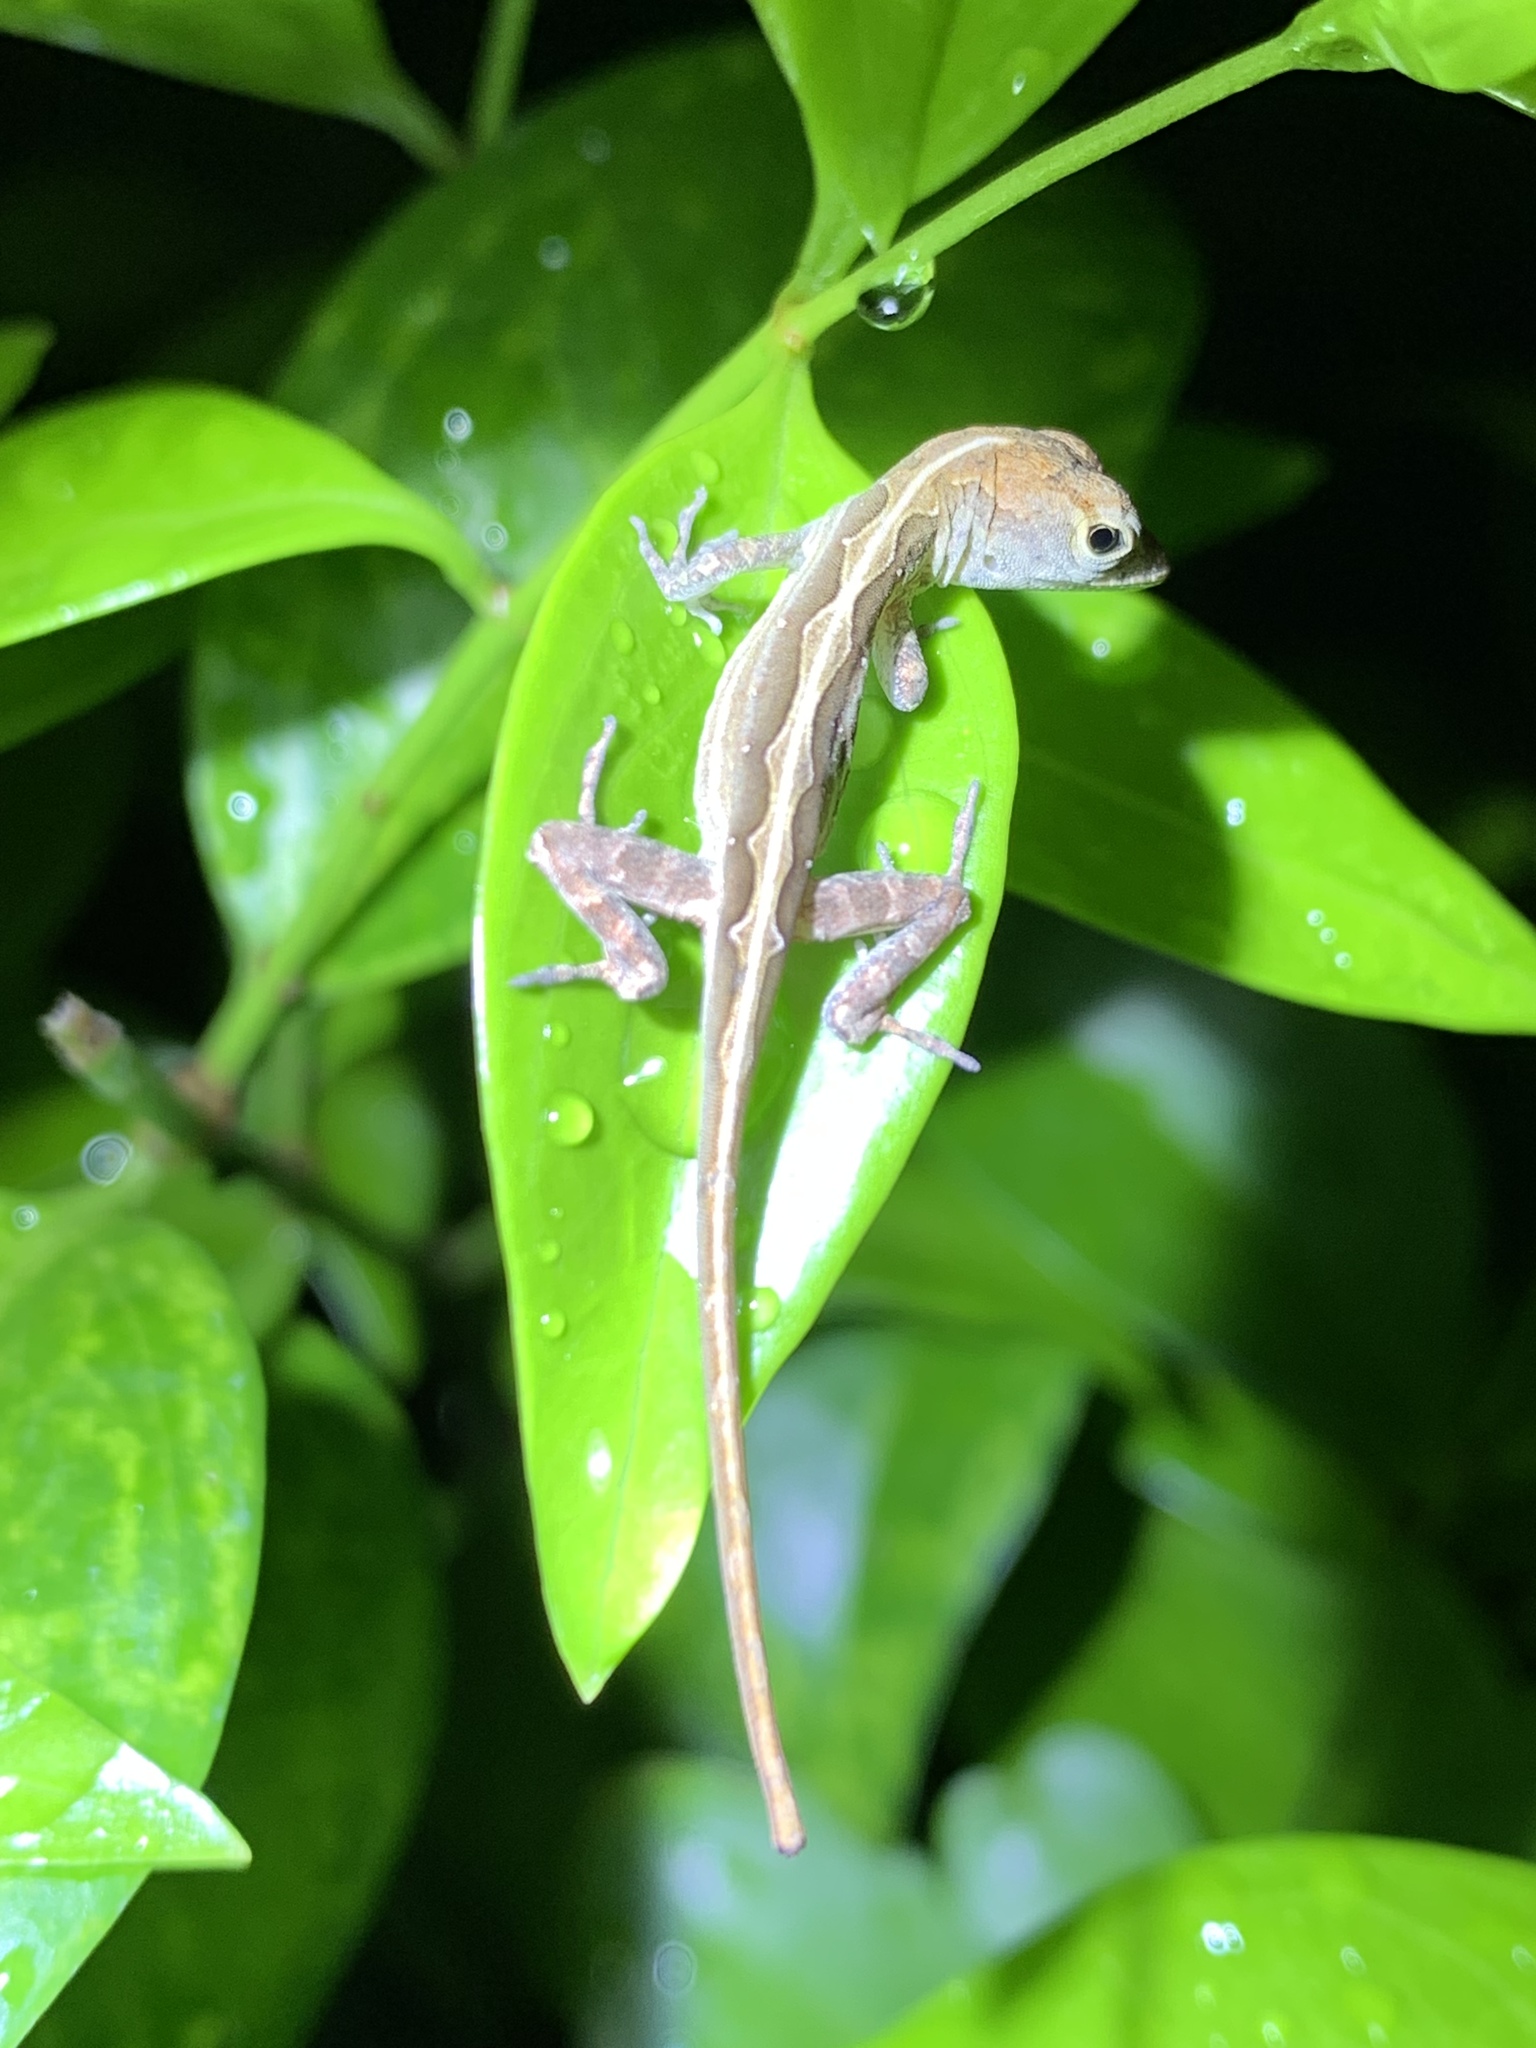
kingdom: Animalia
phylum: Chordata
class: Squamata
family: Dactyloidae
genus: Anolis
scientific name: Anolis sagrei
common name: Brown anole
